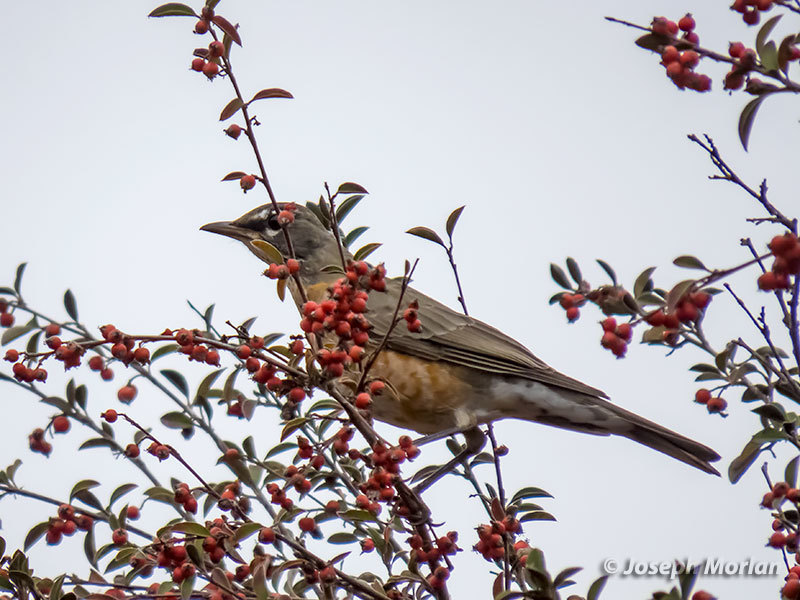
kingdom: Animalia
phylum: Chordata
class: Aves
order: Passeriformes
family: Turdidae
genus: Turdus
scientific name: Turdus migratorius
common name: American robin
